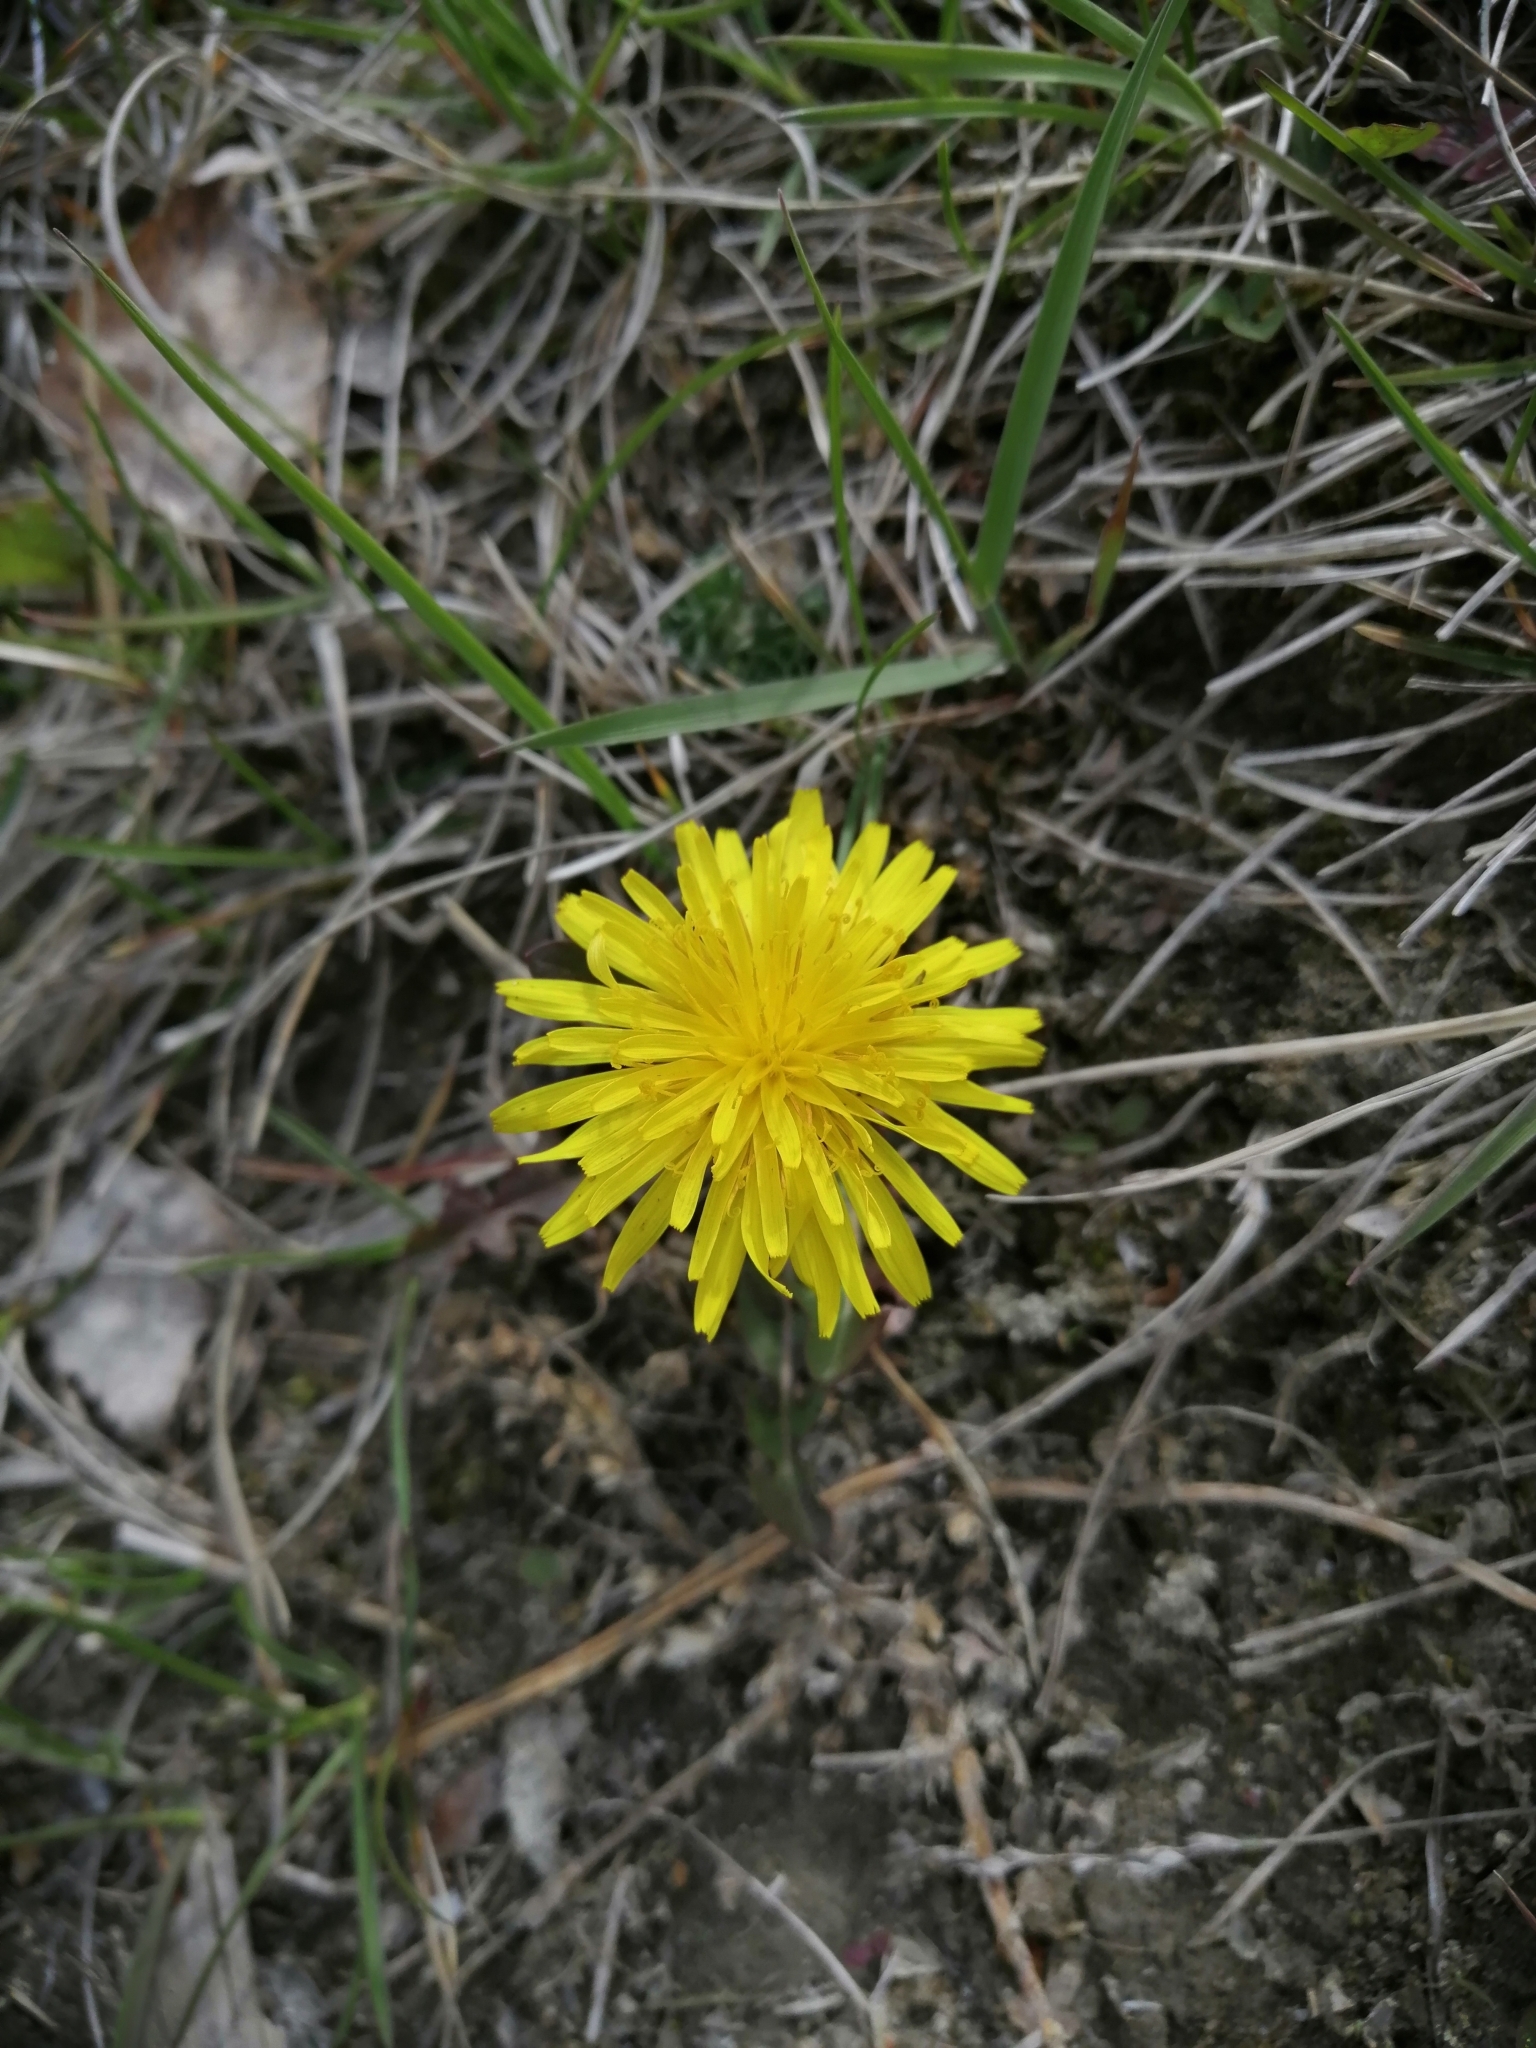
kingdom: Plantae
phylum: Tracheophyta
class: Magnoliopsida
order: Asterales
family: Asteraceae
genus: Taraxacum
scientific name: Taraxacum officinale
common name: Common dandelion
